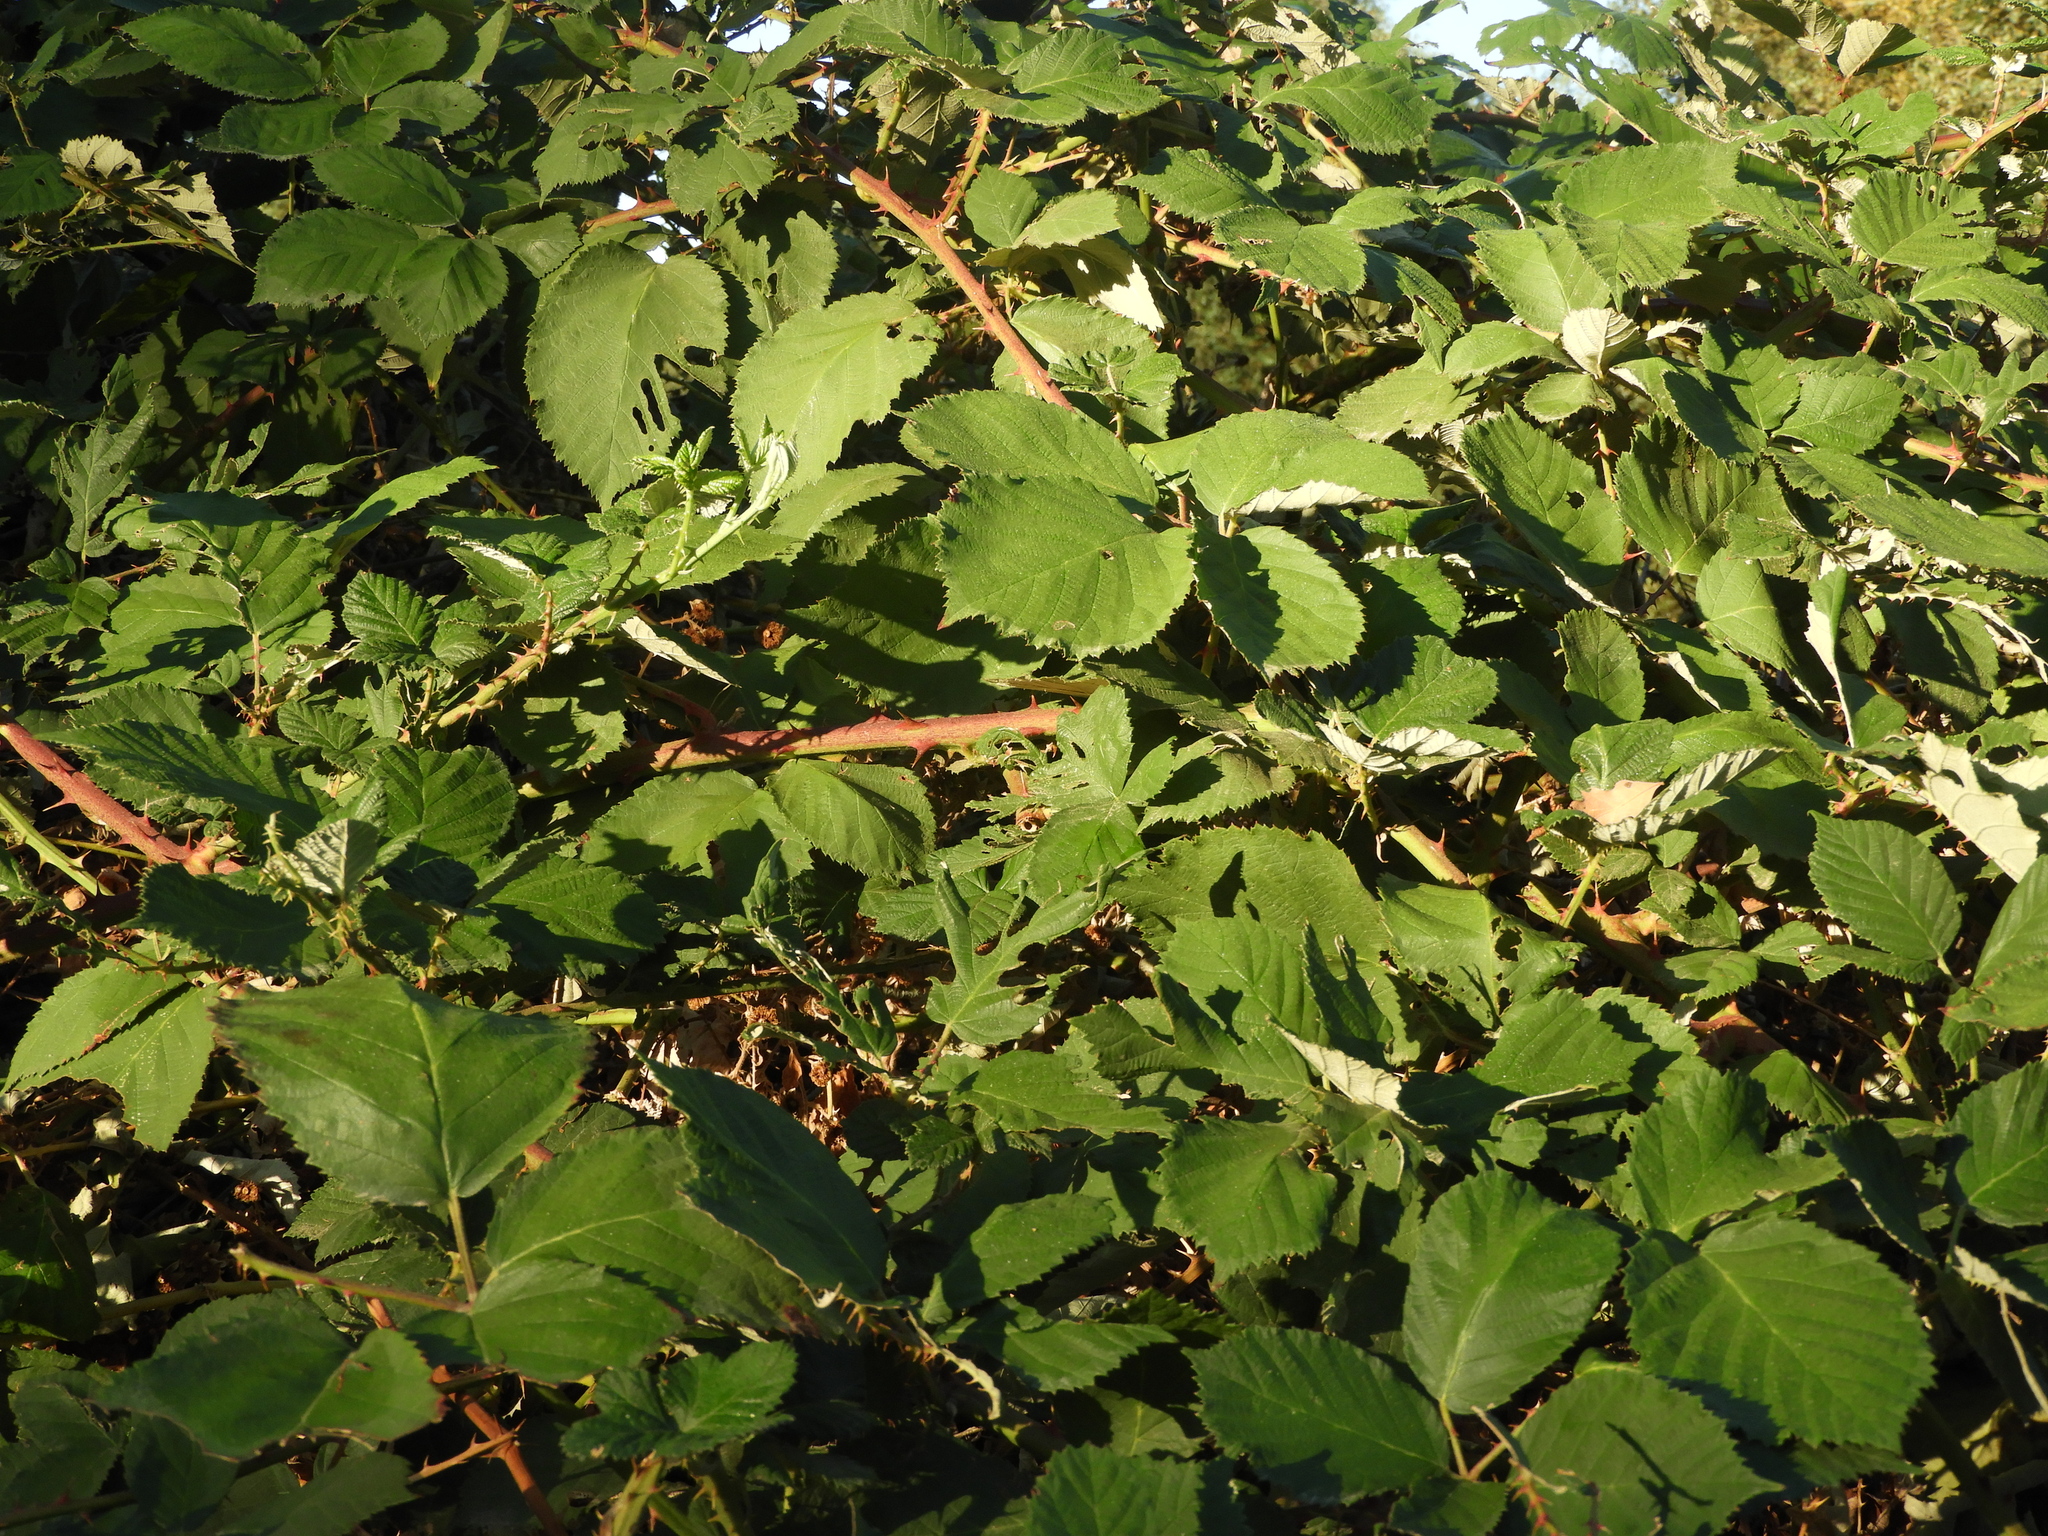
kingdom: Plantae
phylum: Tracheophyta
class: Magnoliopsida
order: Rosales
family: Rosaceae
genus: Rubus
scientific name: Rubus armeniacus
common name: Himalayan blackberry
